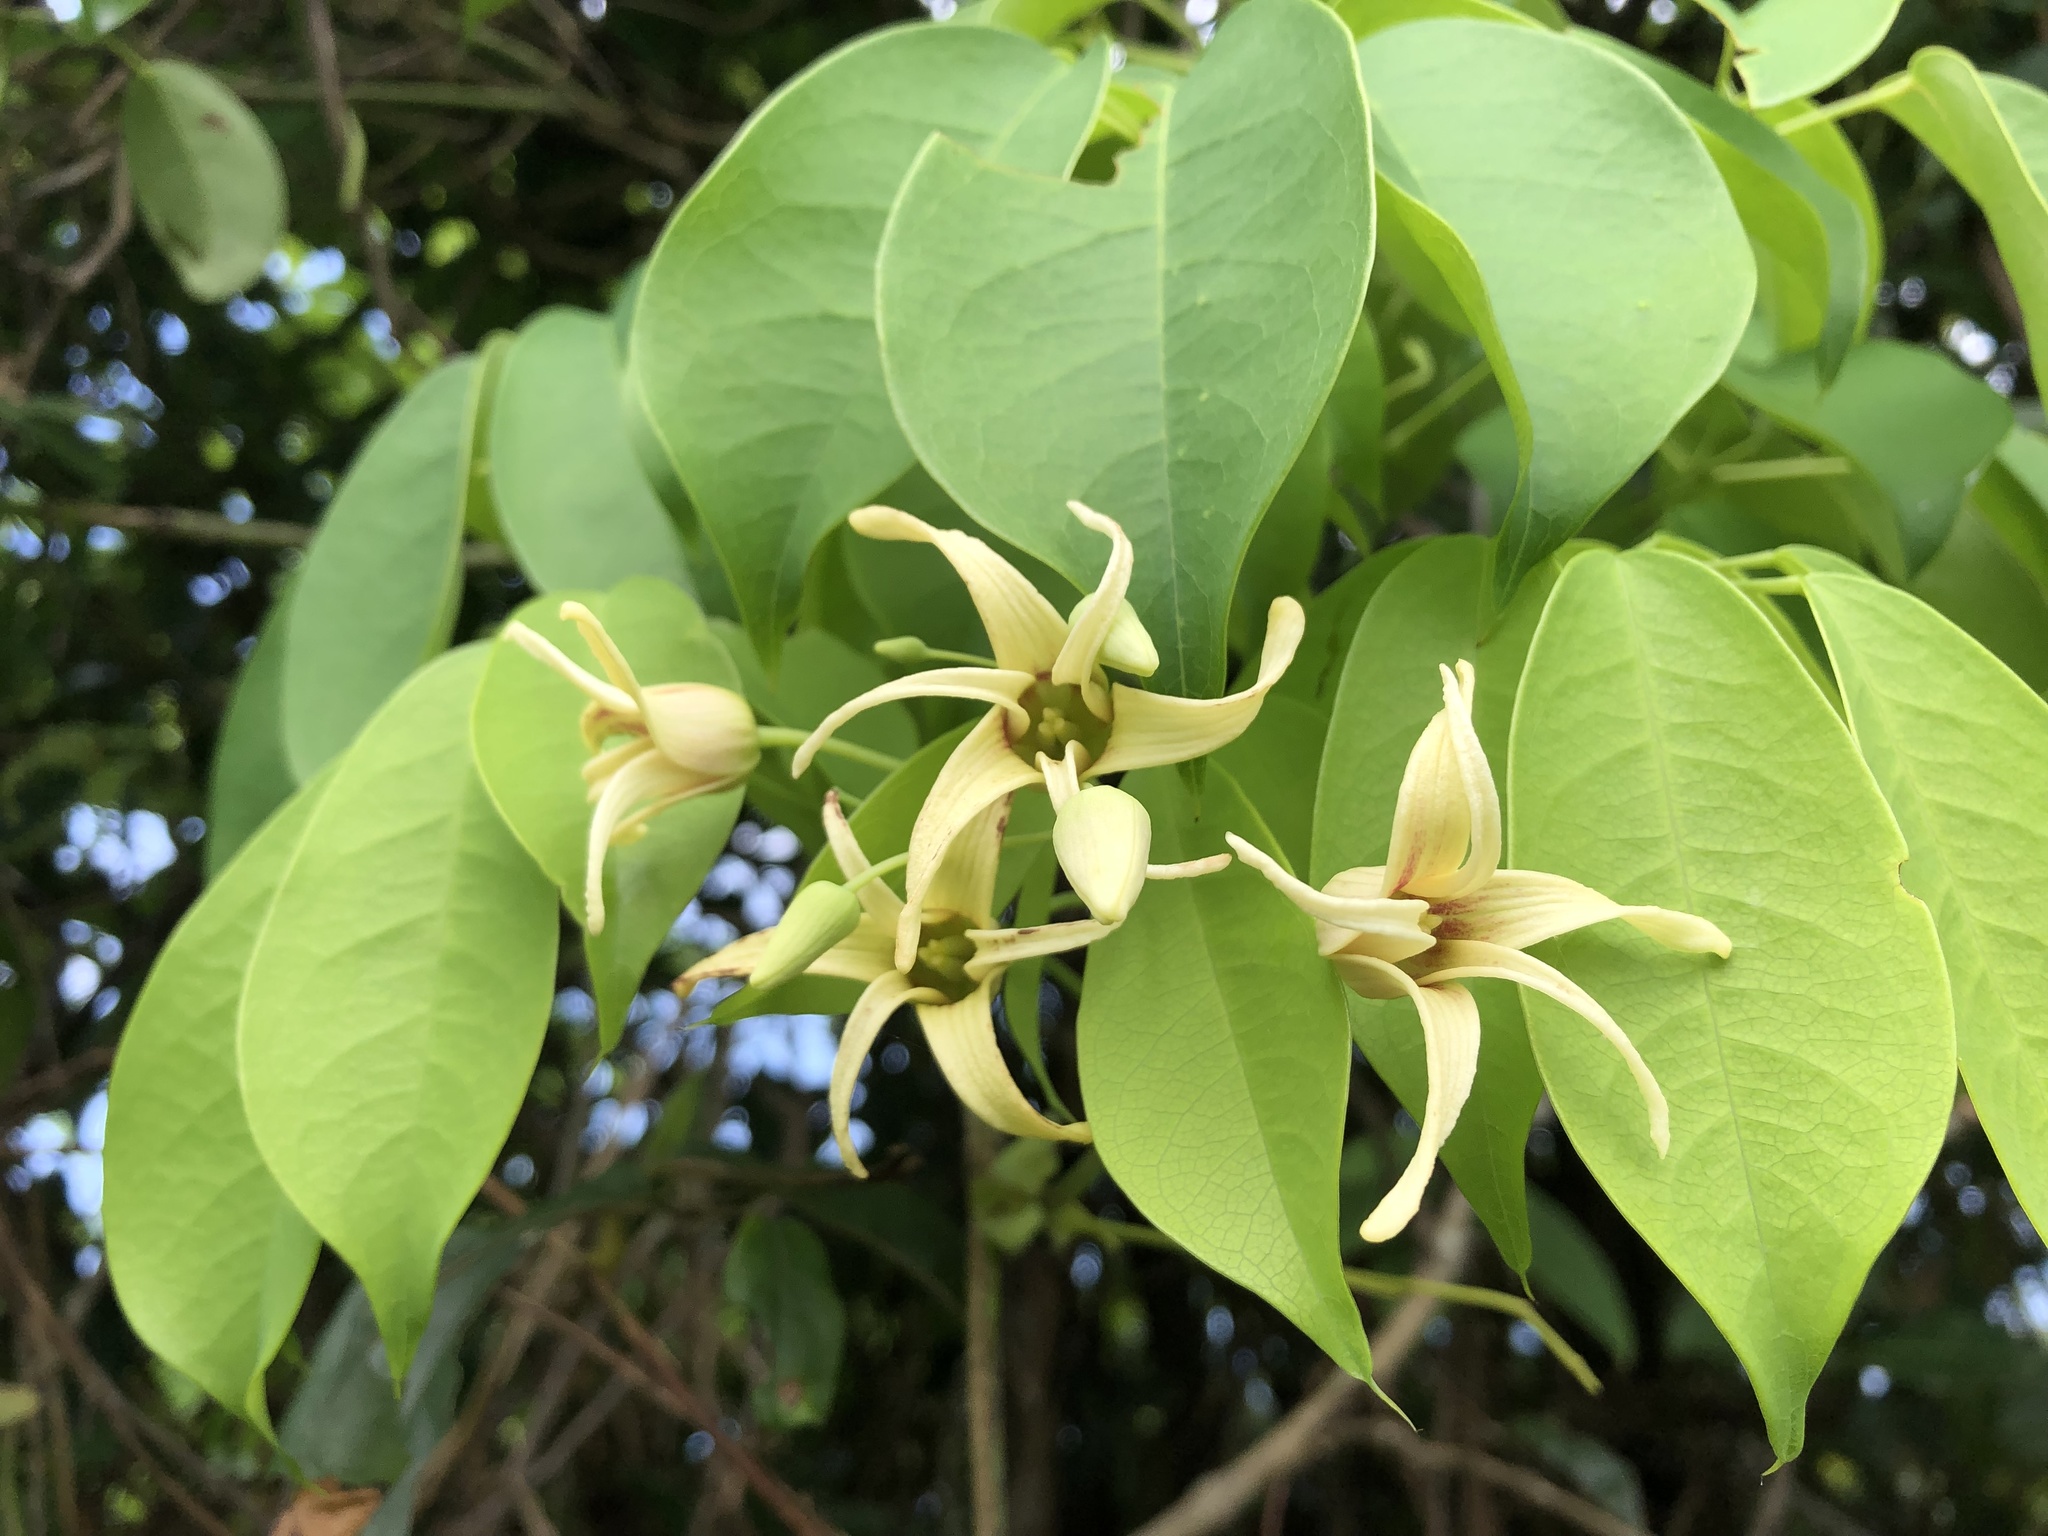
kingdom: Plantae
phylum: Tracheophyta
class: Magnoliopsida
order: Ranunculales
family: Lardizabalaceae
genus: Stauntonia
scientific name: Stauntonia obovatifoliola
